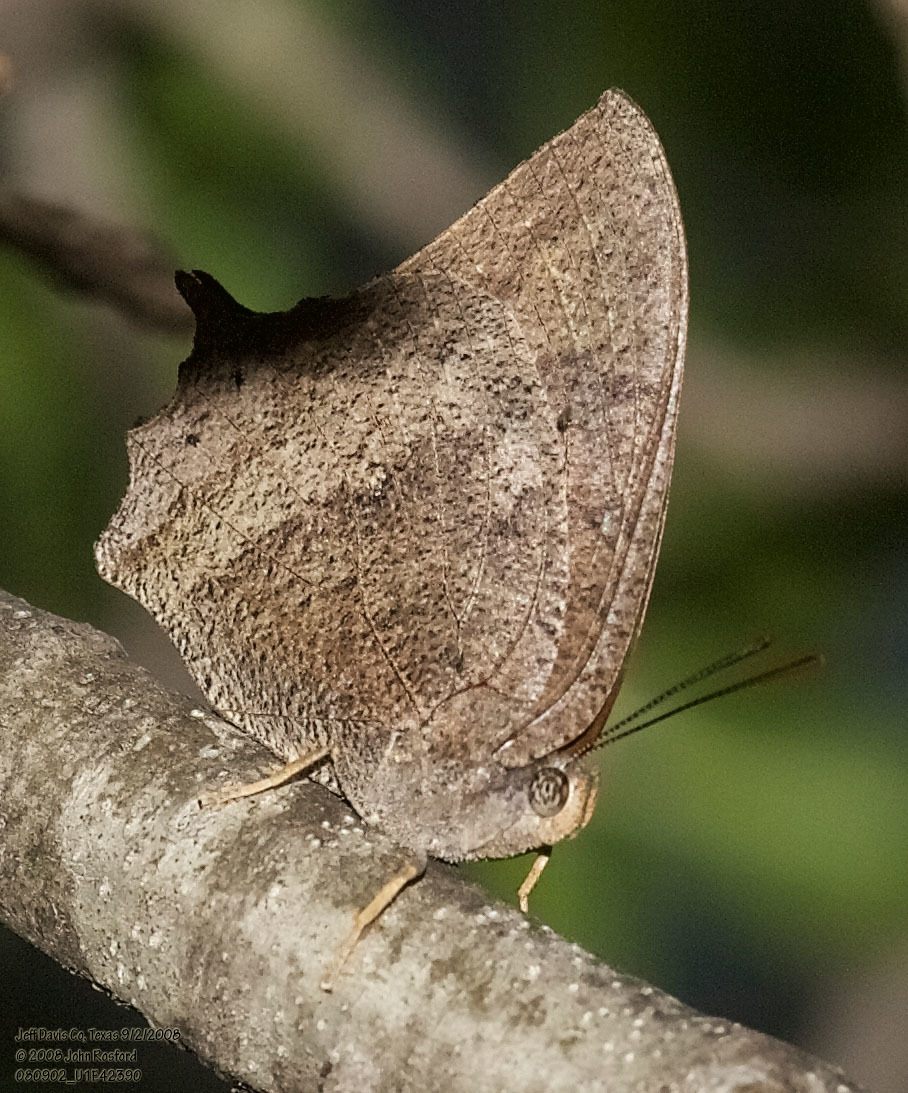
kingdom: Animalia
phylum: Arthropoda
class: Insecta
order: Lepidoptera
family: Nymphalidae
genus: Anaea
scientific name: Anaea aidea
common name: Tropical leafwing
